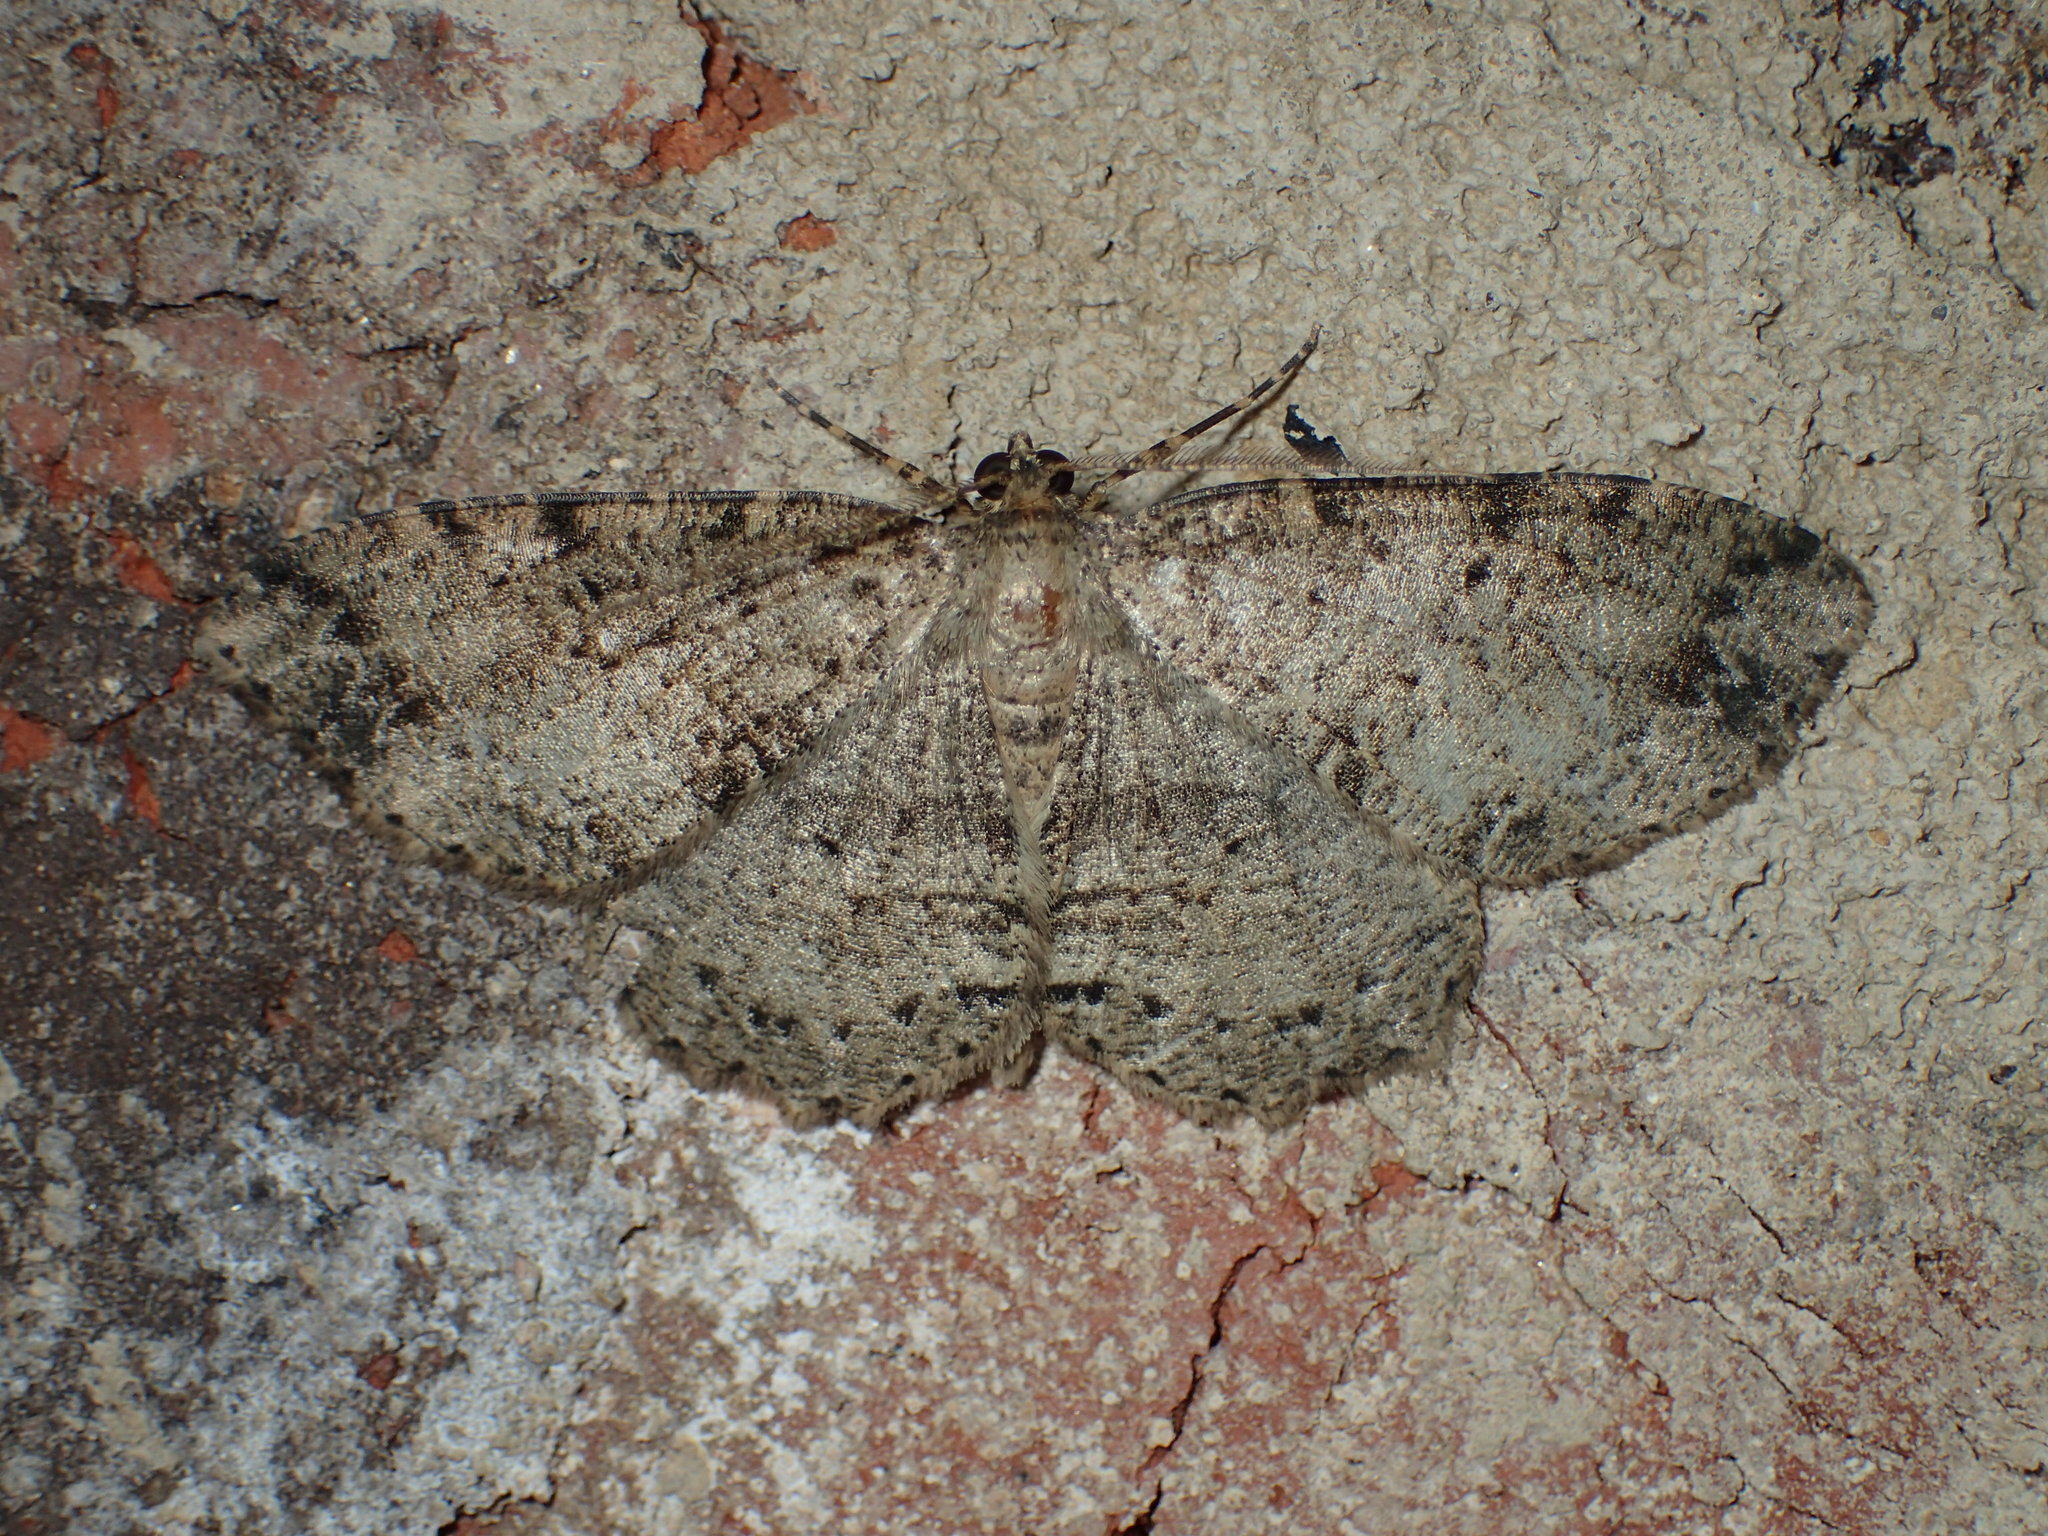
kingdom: Animalia
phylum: Arthropoda
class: Insecta
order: Lepidoptera
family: Geometridae
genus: Melanolophia
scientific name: Melanolophia signataria
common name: Signate melanolophia
